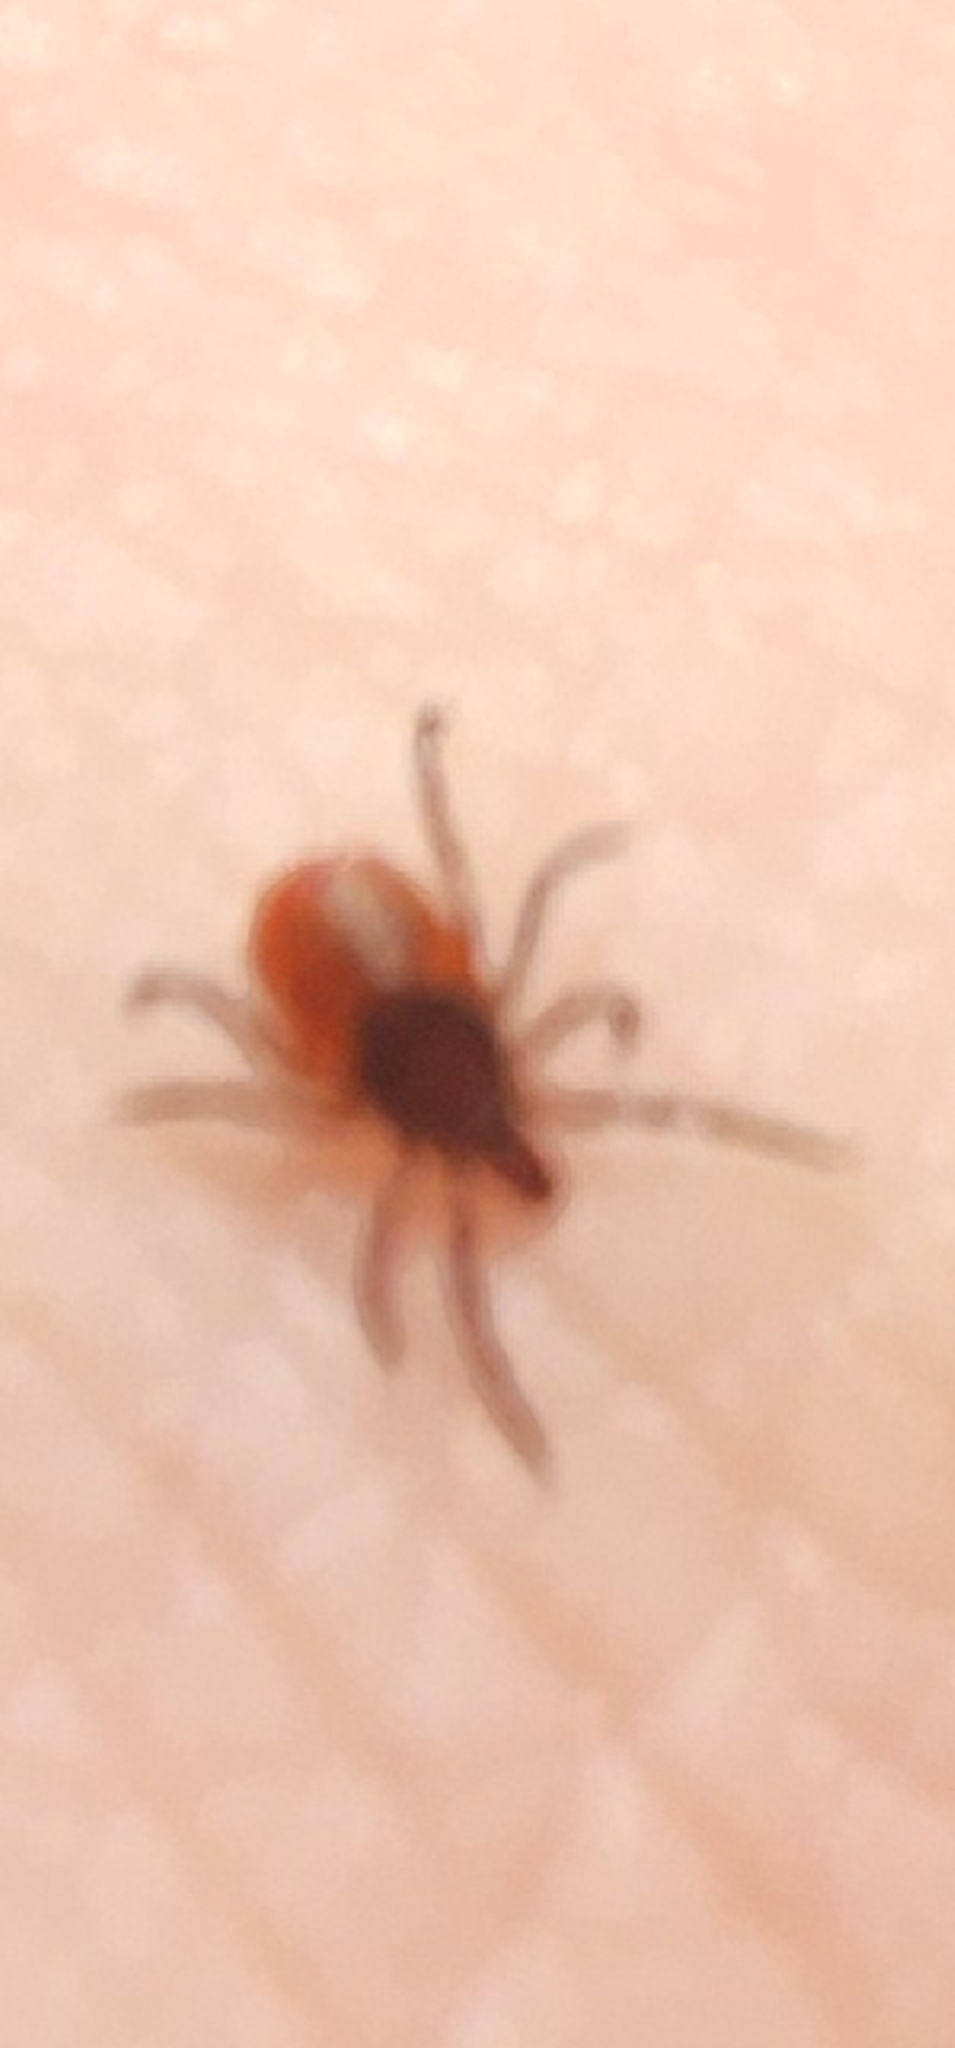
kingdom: Animalia
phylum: Arthropoda
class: Arachnida
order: Ixodida
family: Ixodidae
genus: Ixodes
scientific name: Ixodes scapularis
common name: Black legged tick
